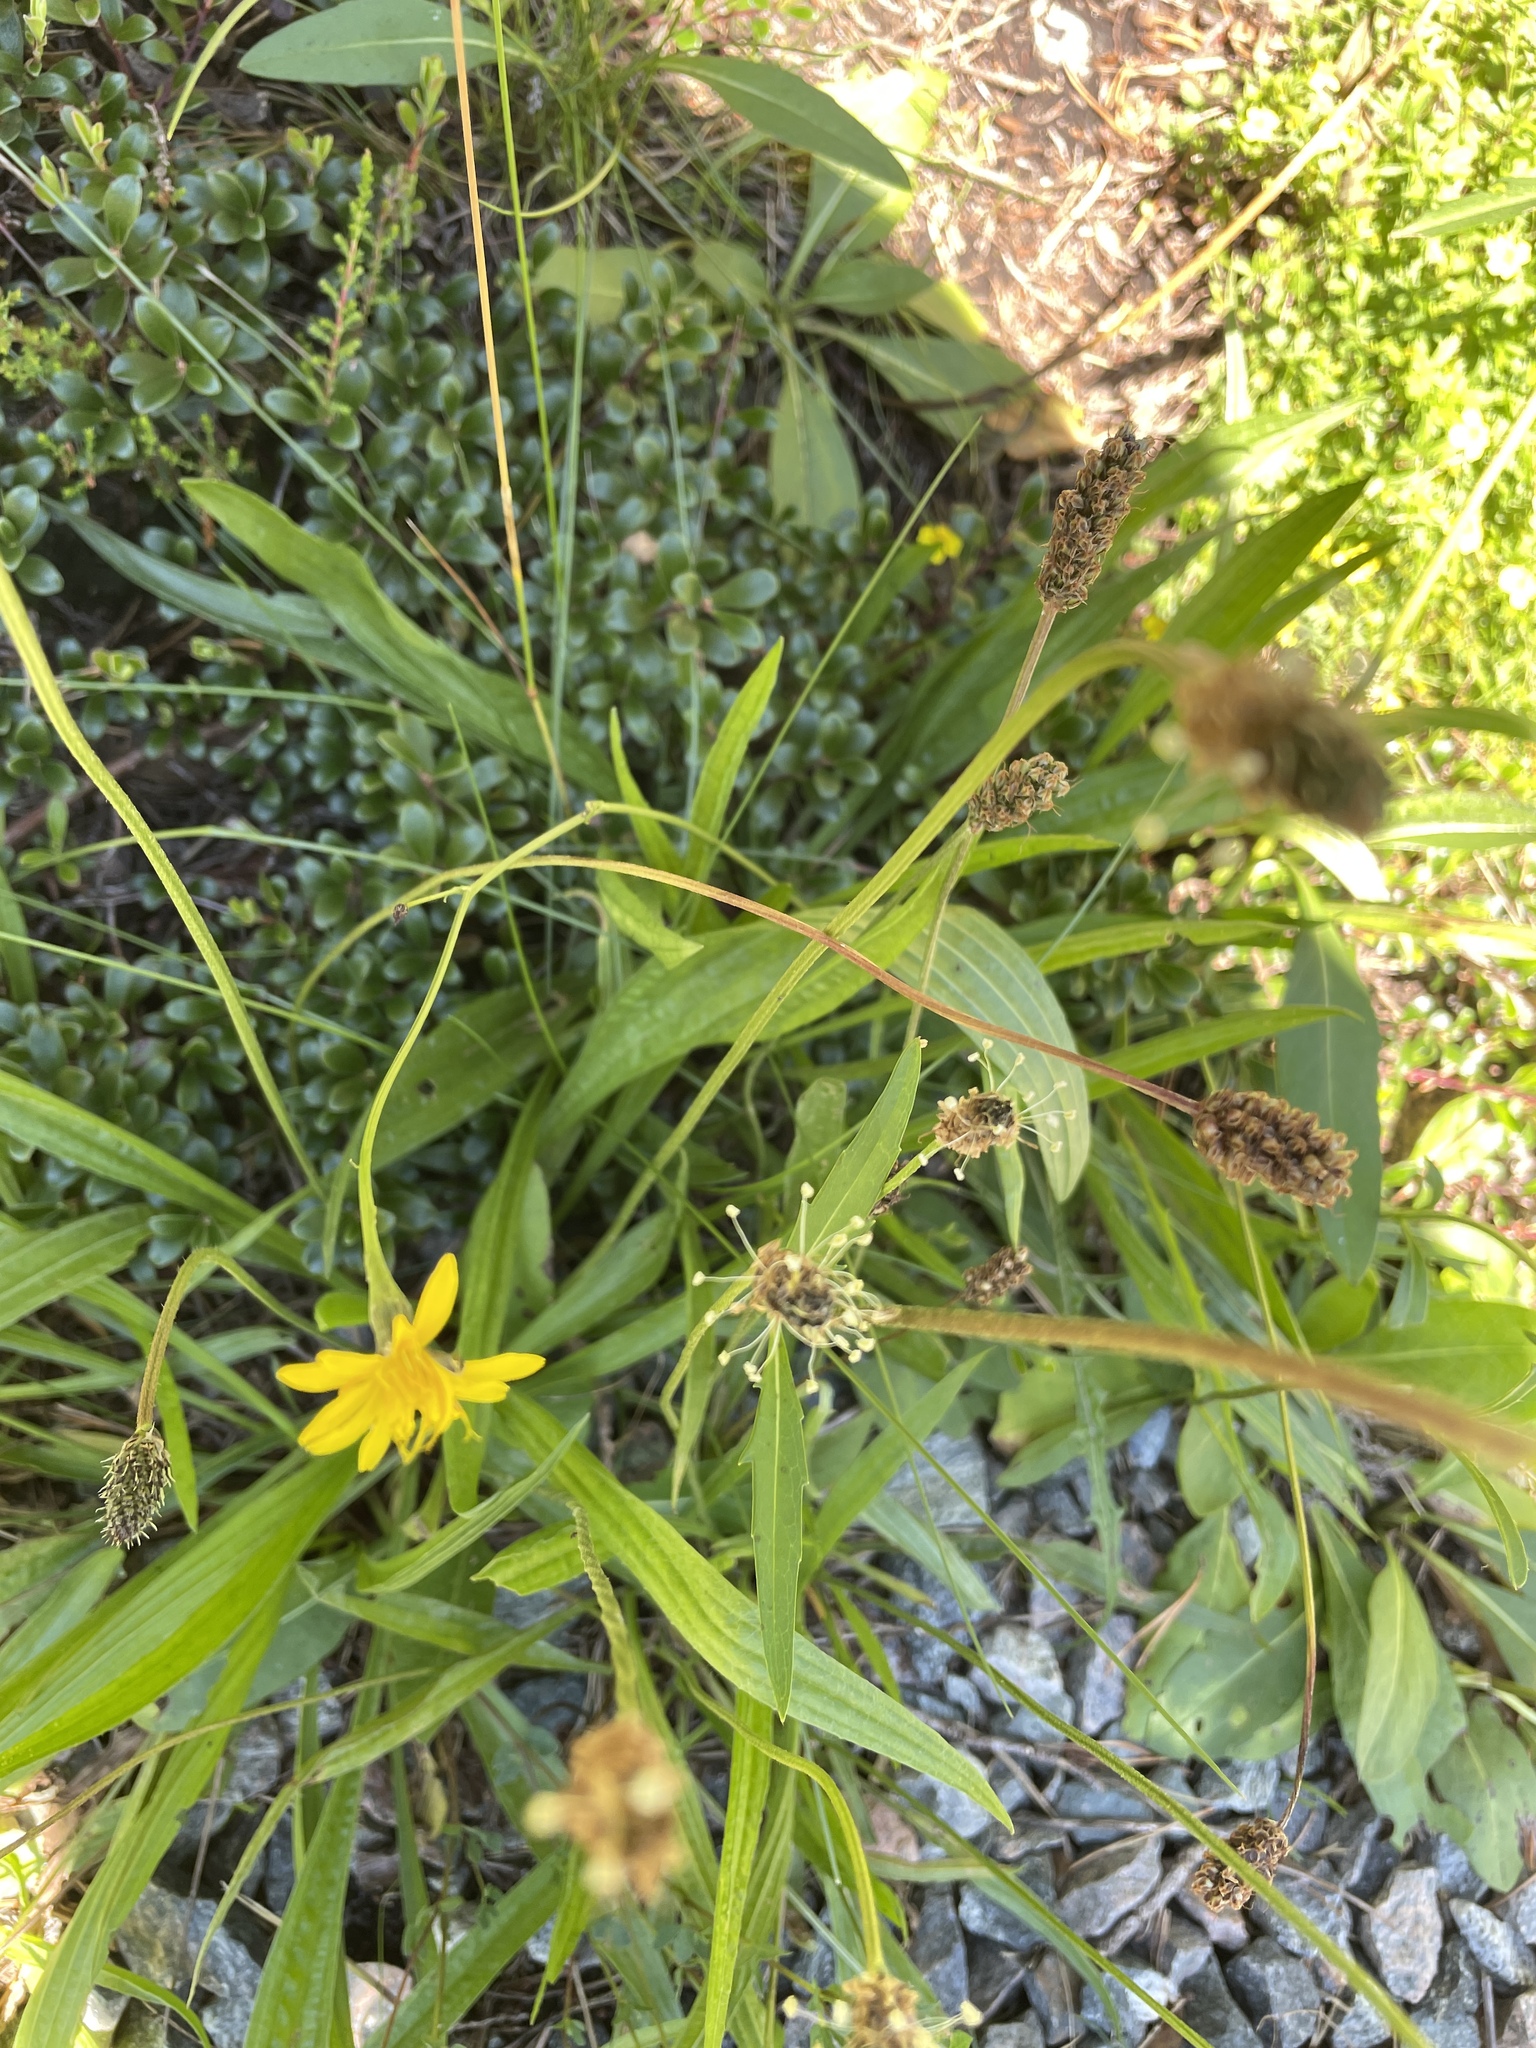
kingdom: Plantae
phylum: Tracheophyta
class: Magnoliopsida
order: Lamiales
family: Plantaginaceae
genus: Plantago
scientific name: Plantago lanceolata
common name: Ribwort plantain
